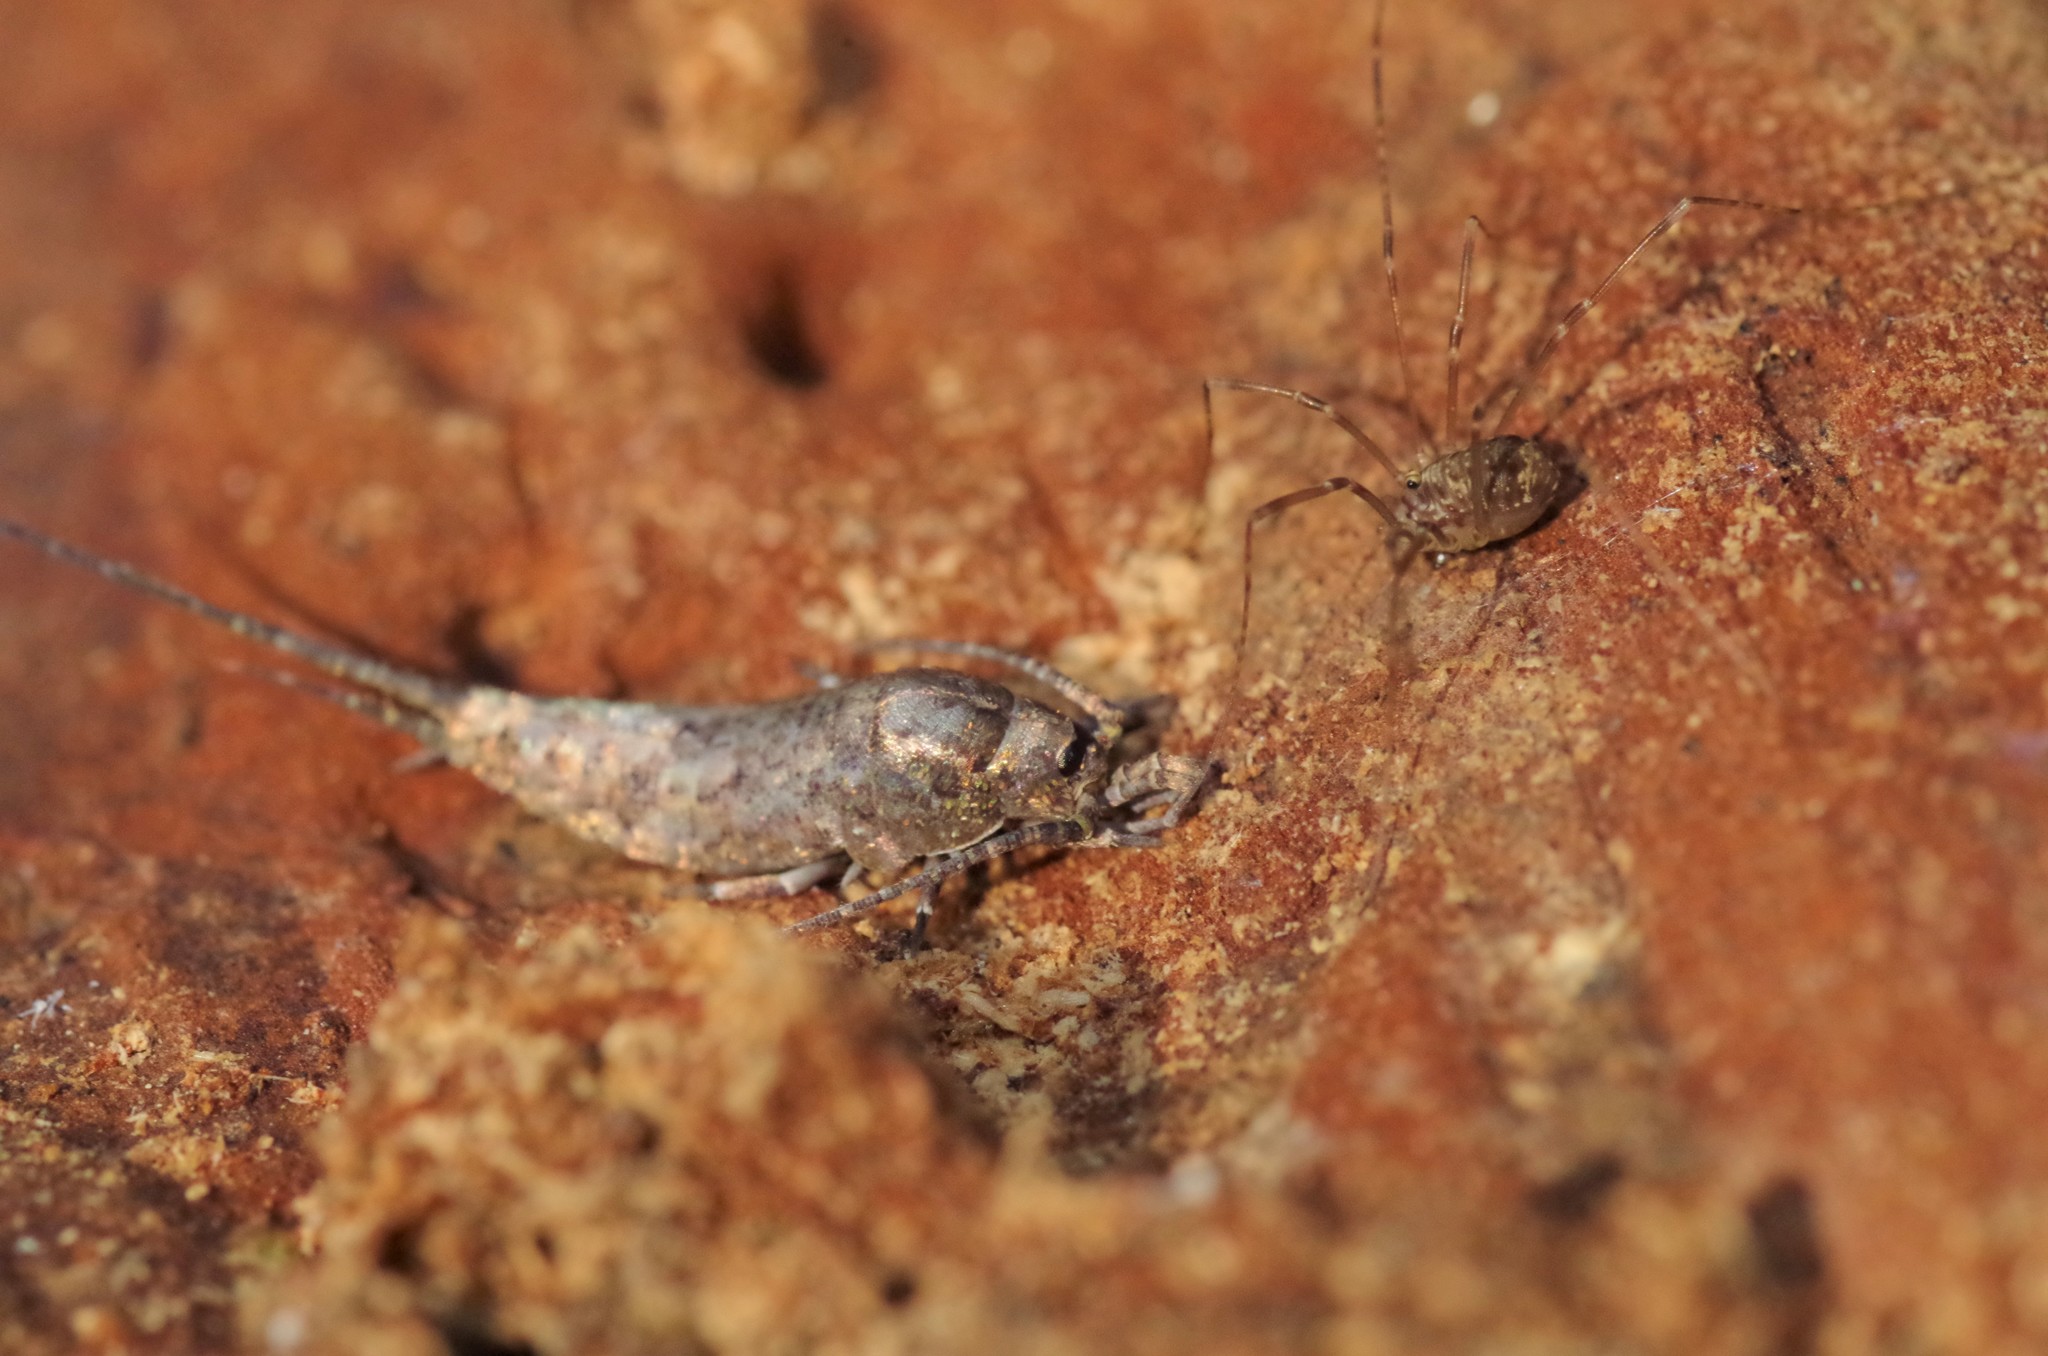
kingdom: Animalia
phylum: Arthropoda
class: Arachnida
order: Opiliones
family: Sclerosomatidae
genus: Leiobunum
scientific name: Leiobunum blackwalli
